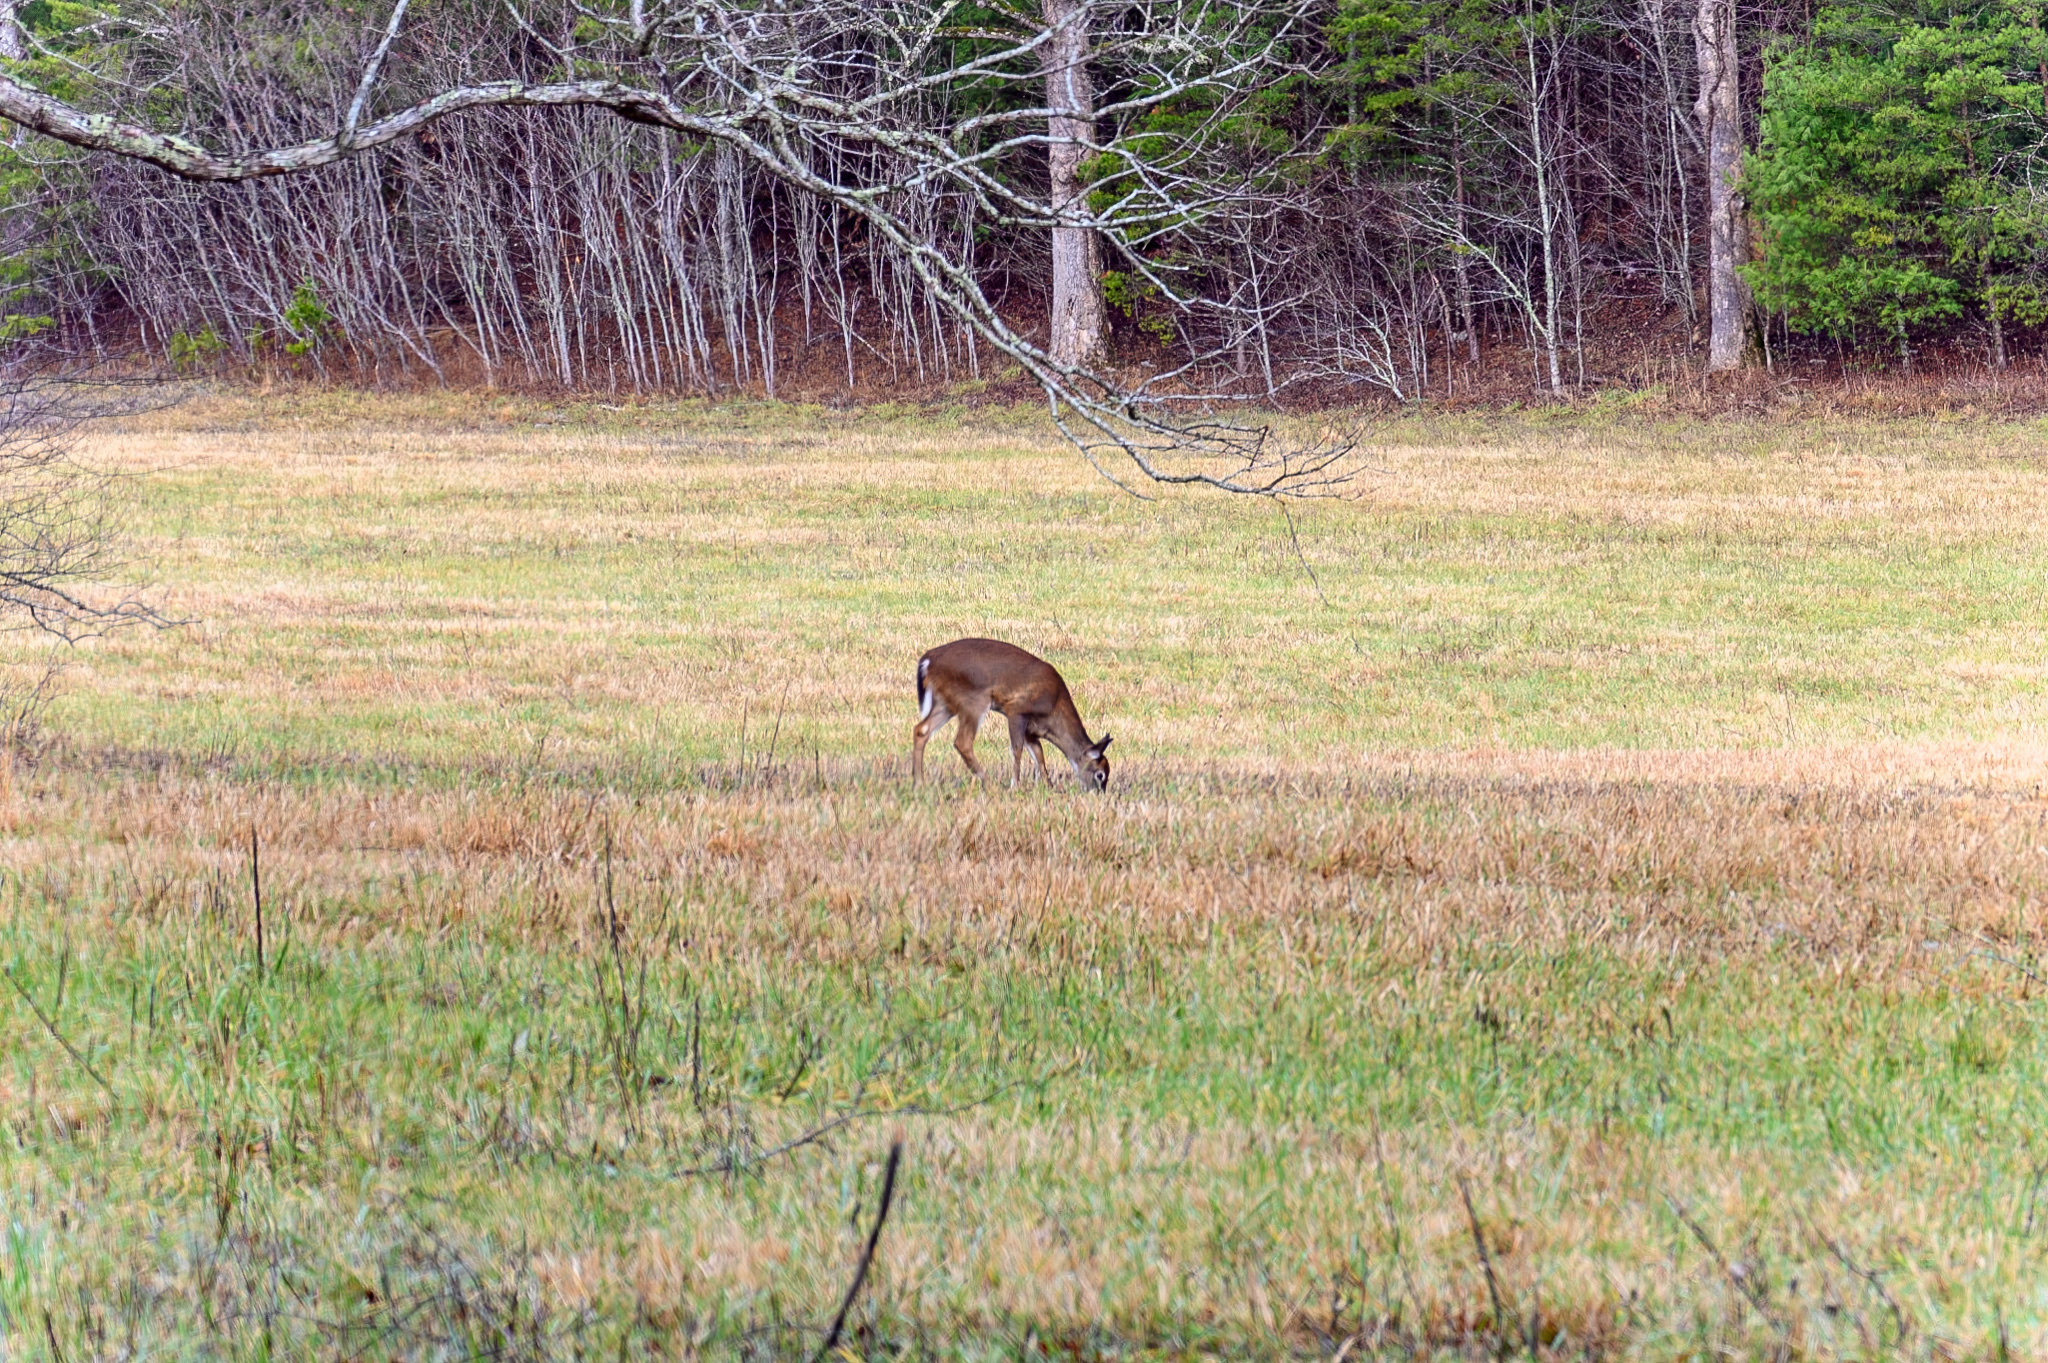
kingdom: Animalia
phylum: Chordata
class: Mammalia
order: Artiodactyla
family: Cervidae
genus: Odocoileus
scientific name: Odocoileus virginianus
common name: White-tailed deer
